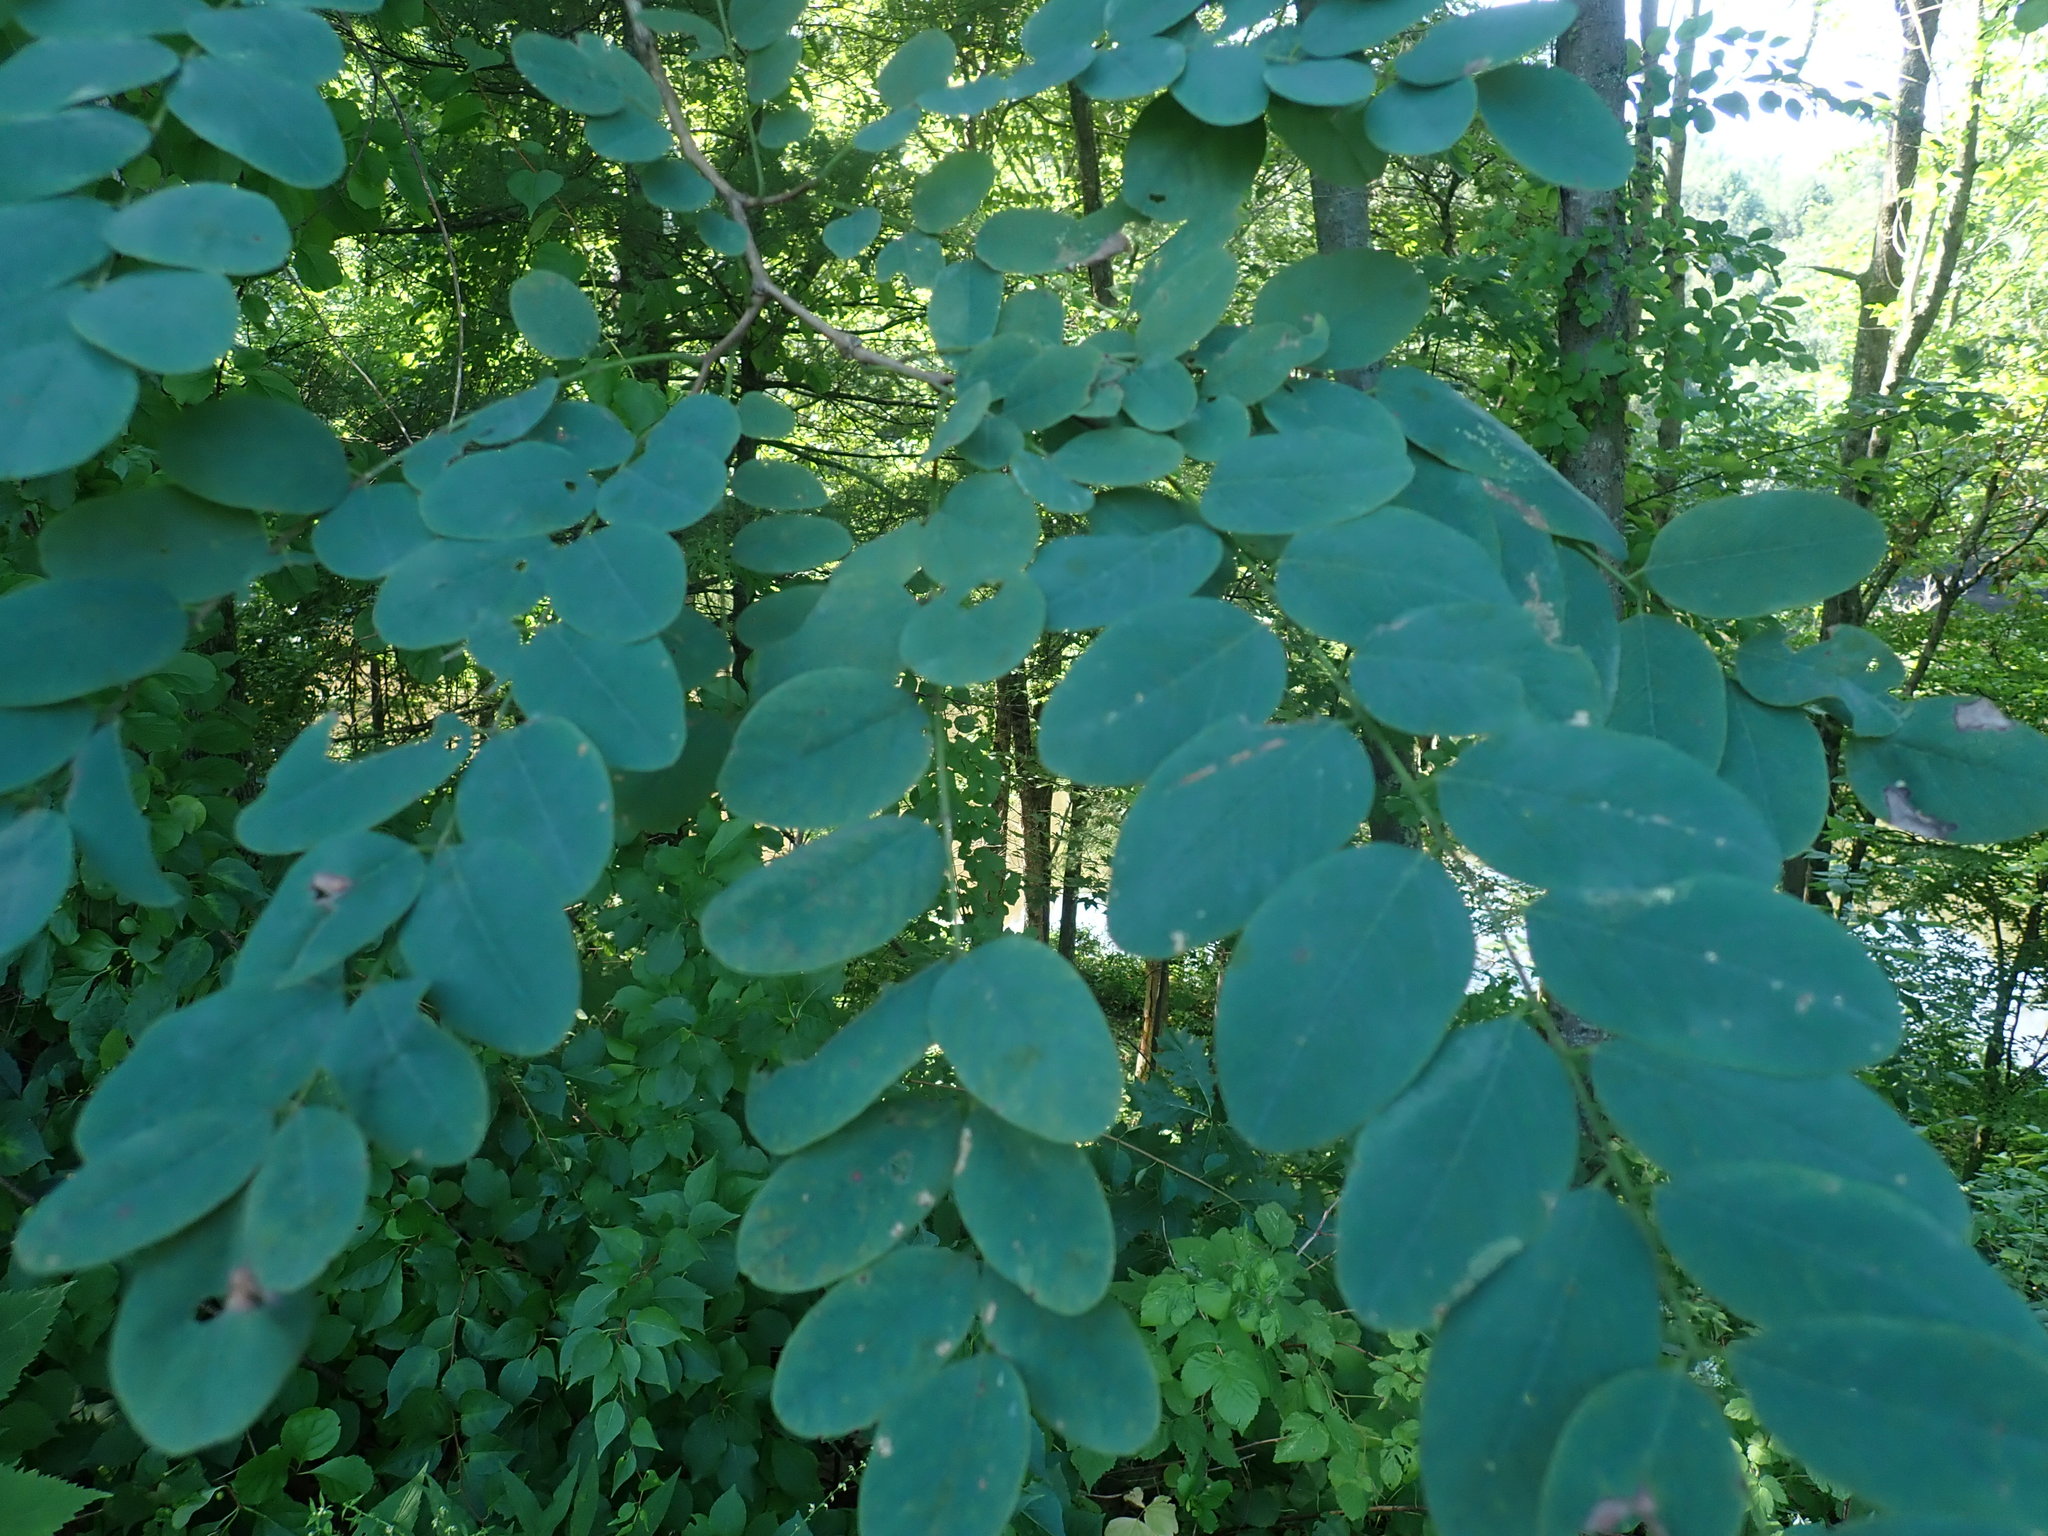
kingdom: Plantae
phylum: Tracheophyta
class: Magnoliopsida
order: Fabales
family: Fabaceae
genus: Robinia
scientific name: Robinia pseudoacacia
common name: Black locust
